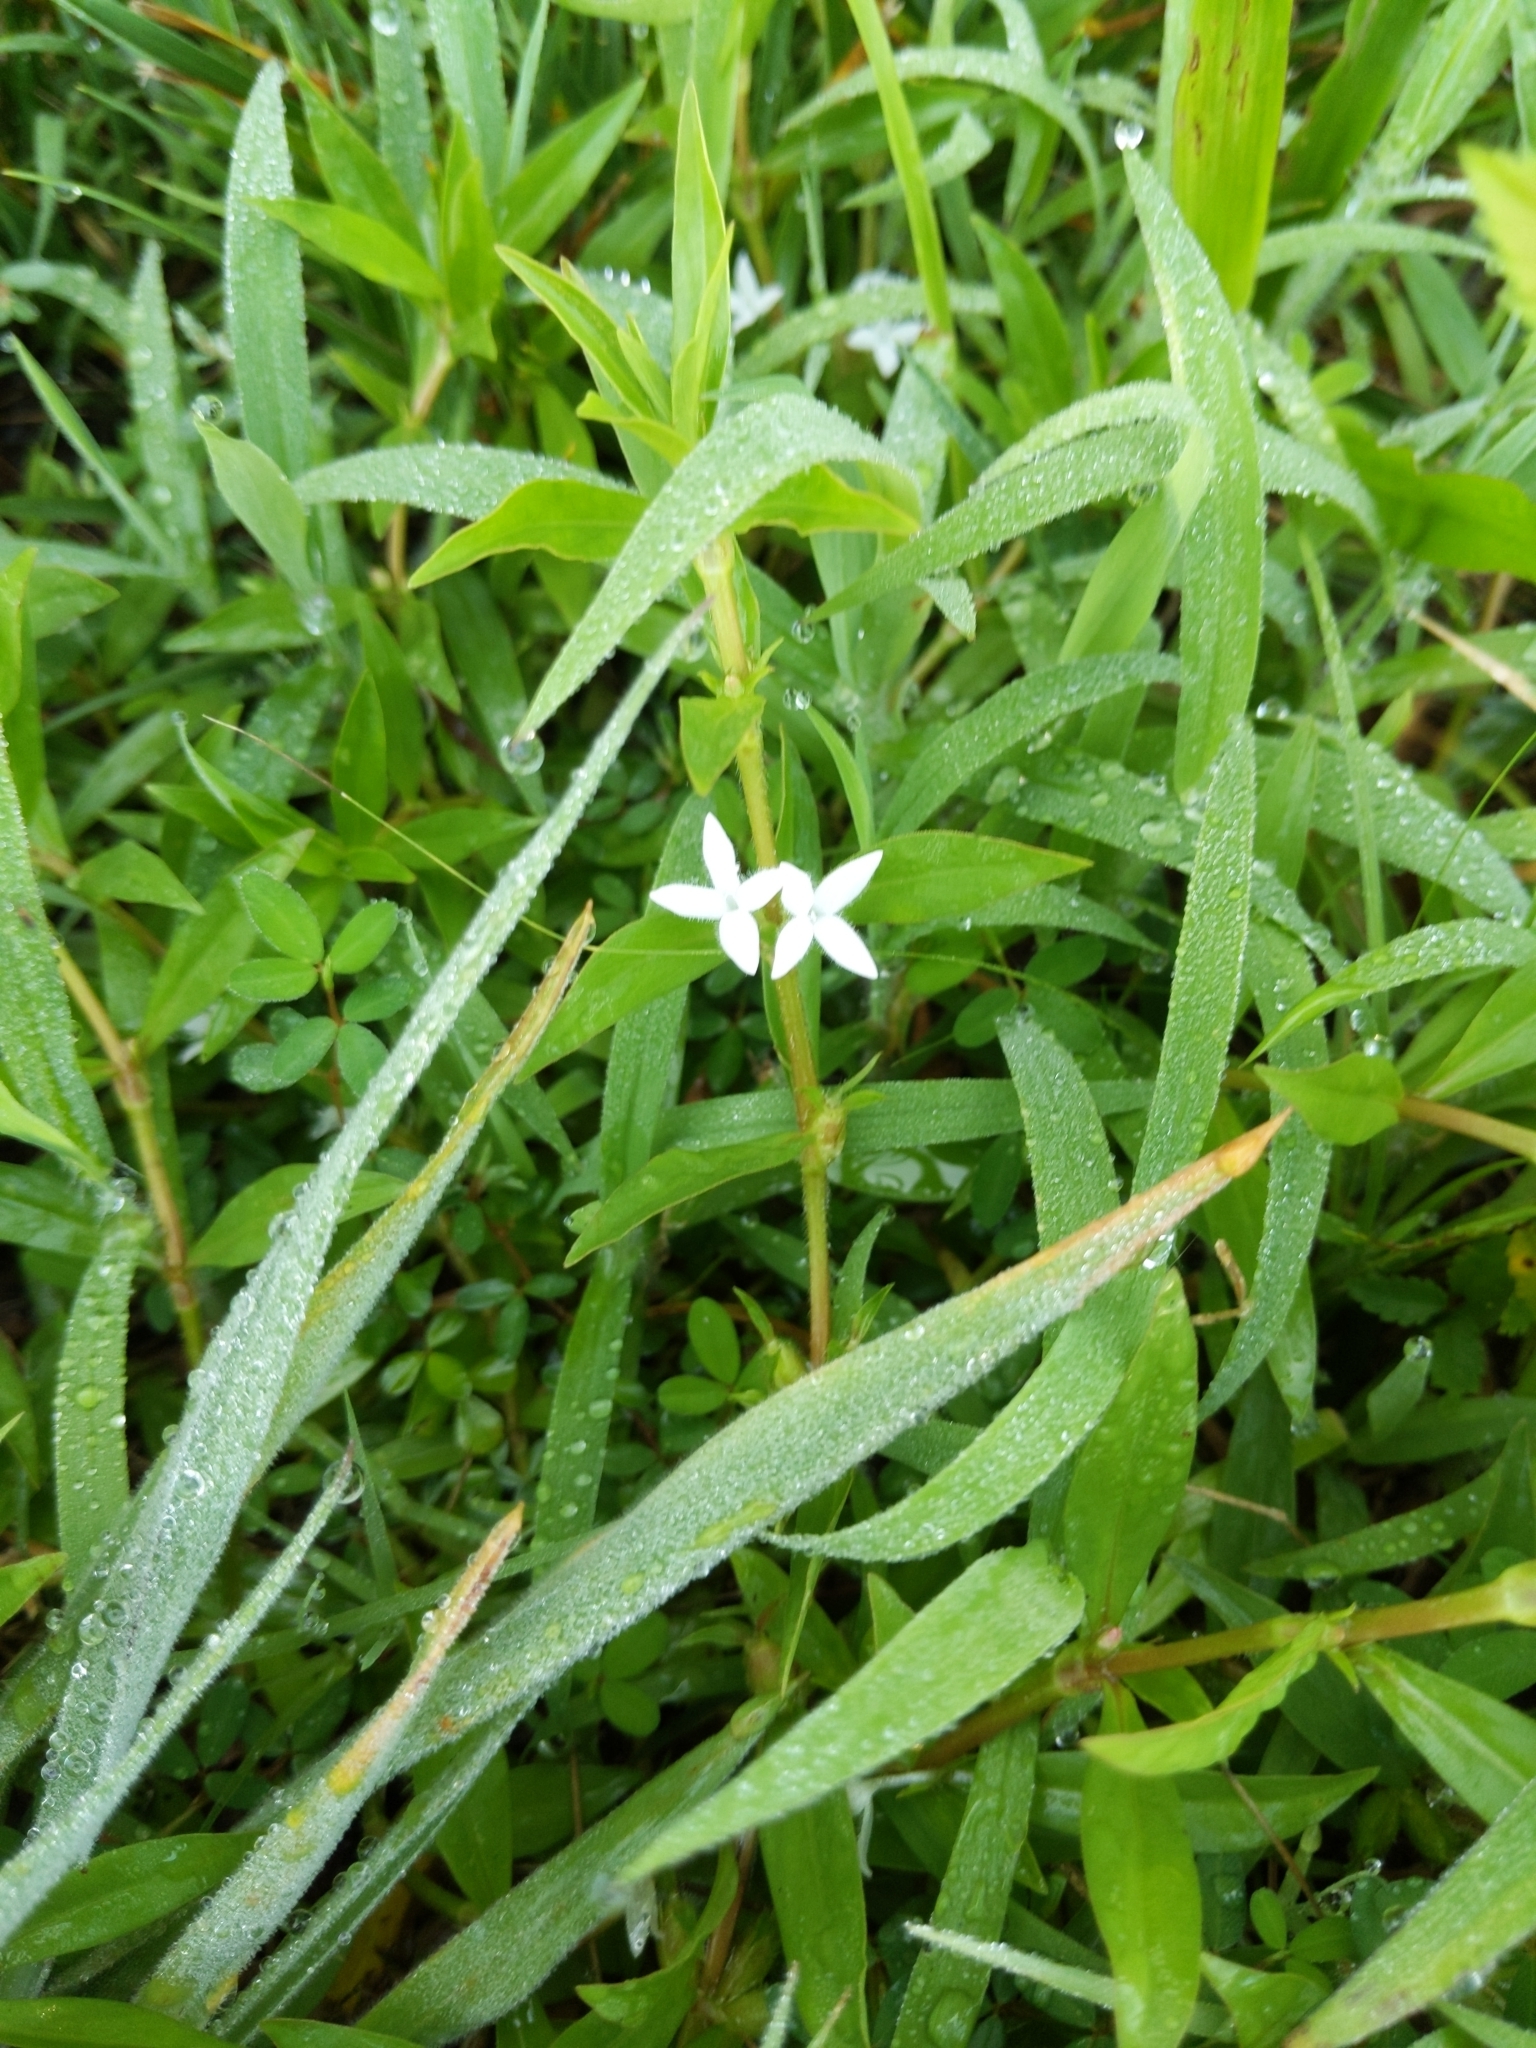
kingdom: Plantae
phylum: Tracheophyta
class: Magnoliopsida
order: Gentianales
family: Rubiaceae
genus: Diodia
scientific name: Diodia virginiana
